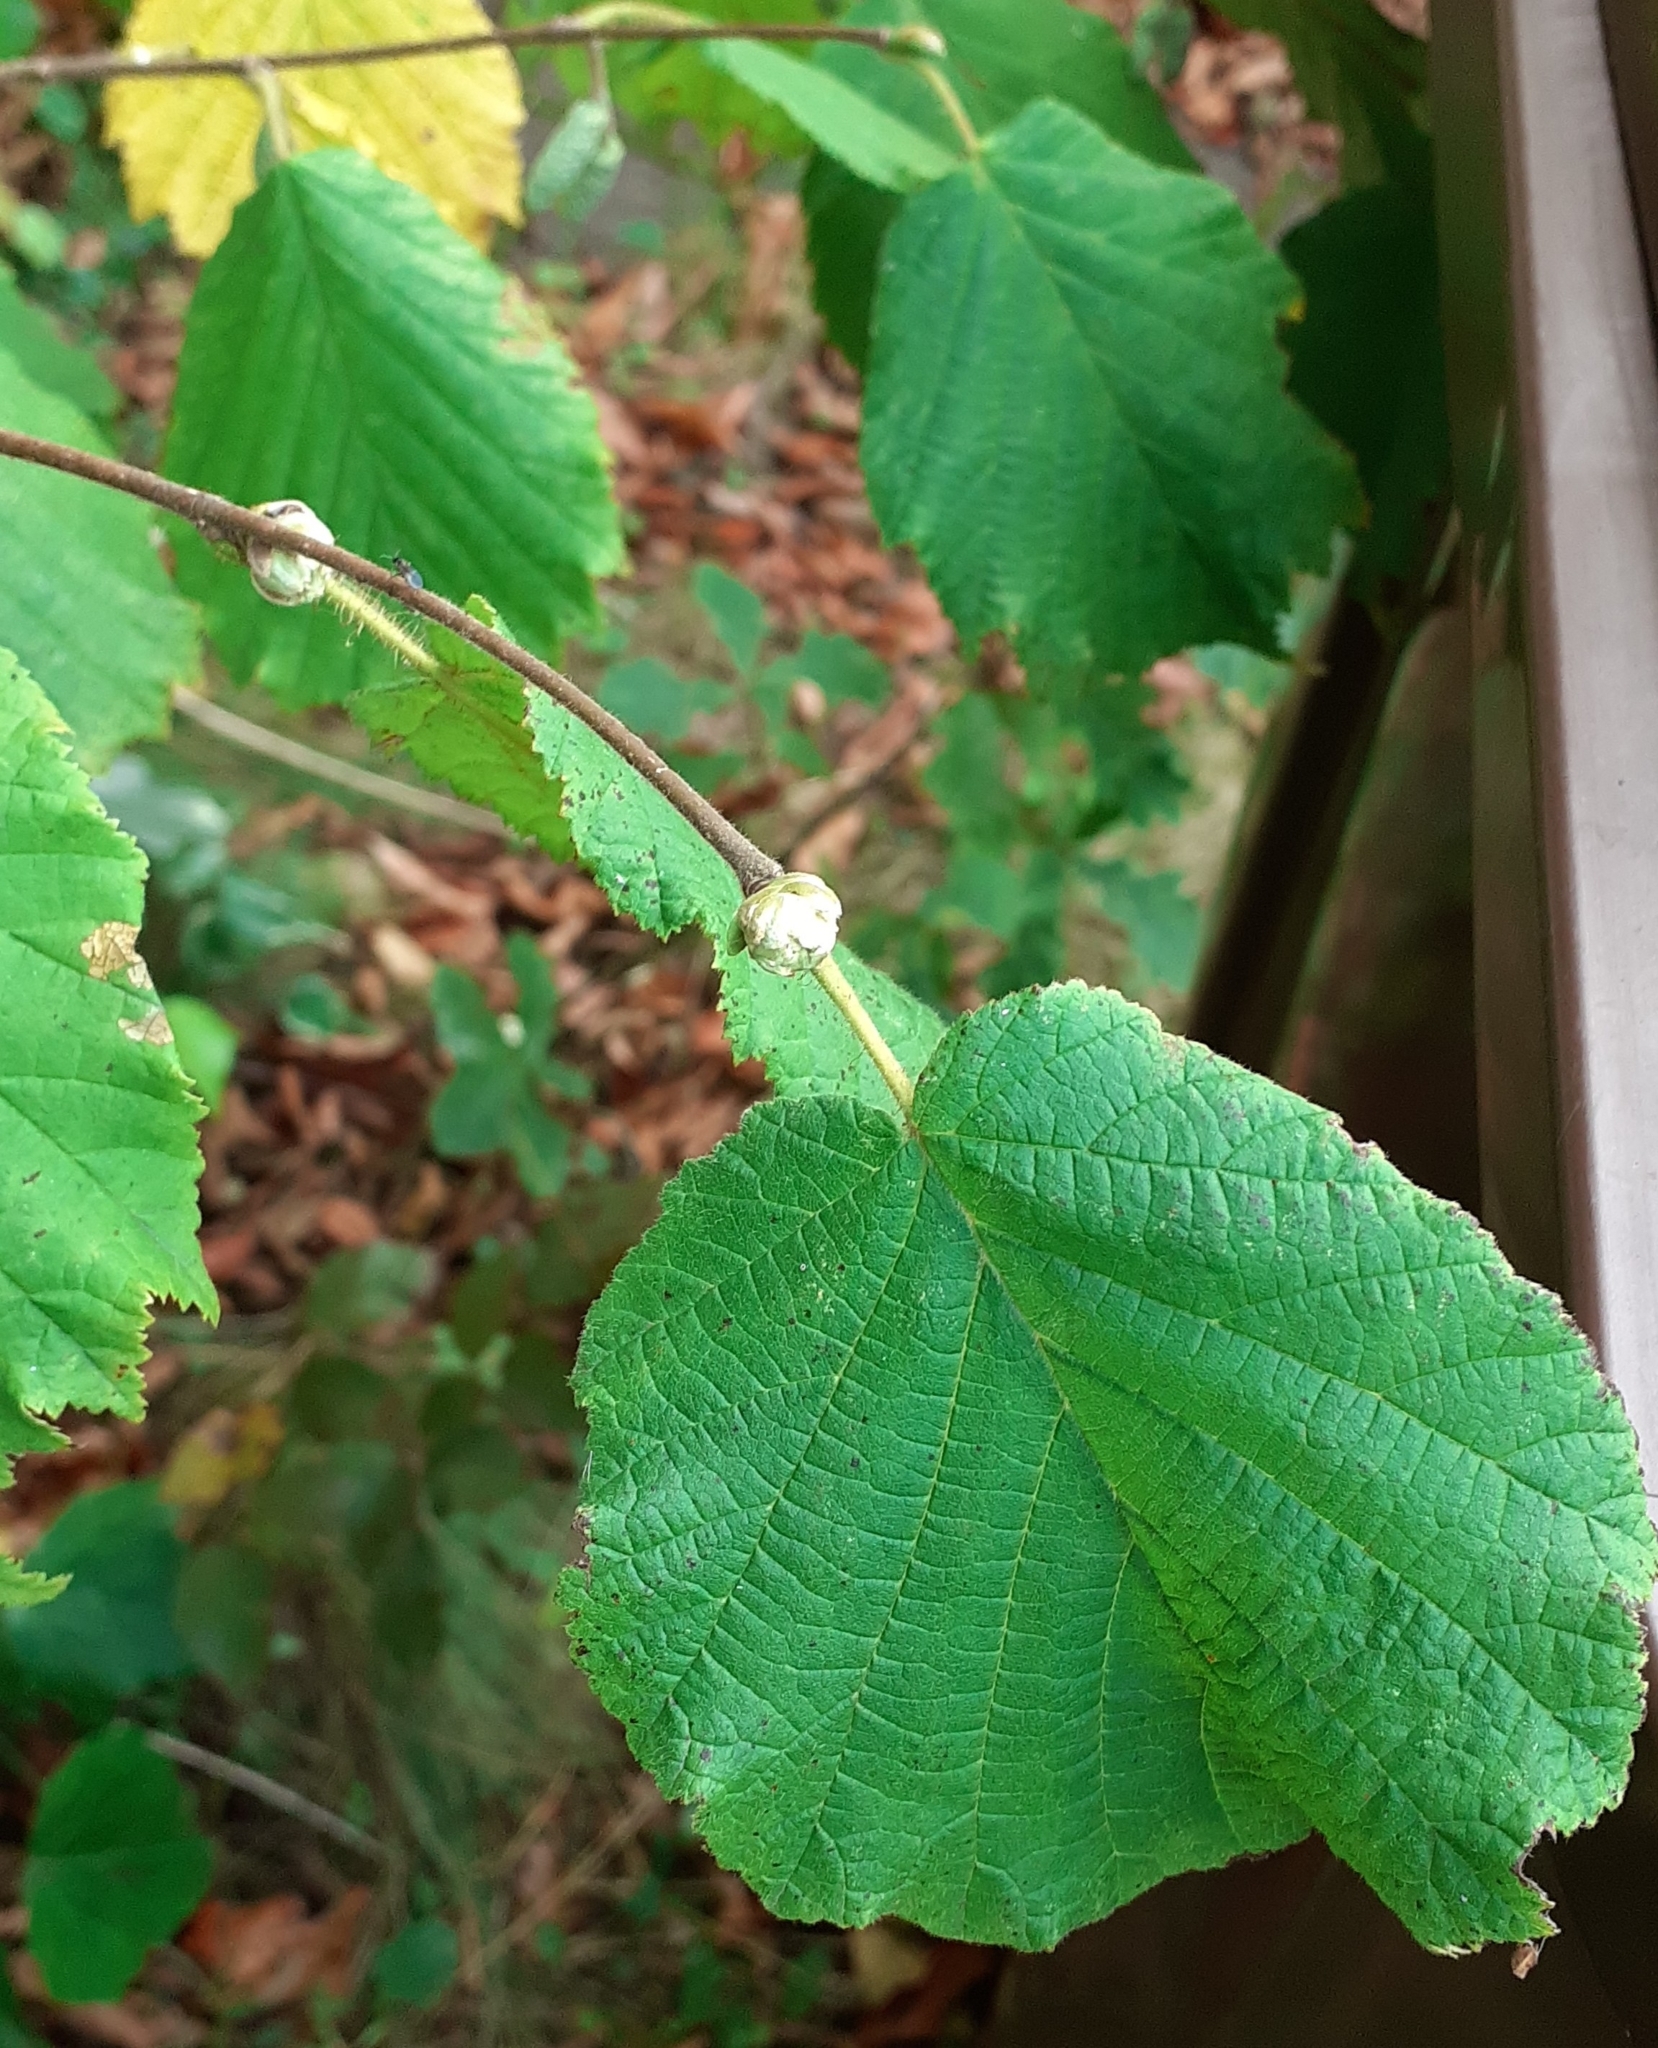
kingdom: Animalia
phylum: Arthropoda
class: Arachnida
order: Trombidiformes
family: Phytoptidae
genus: Phytoptus
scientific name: Phytoptus avellanae
